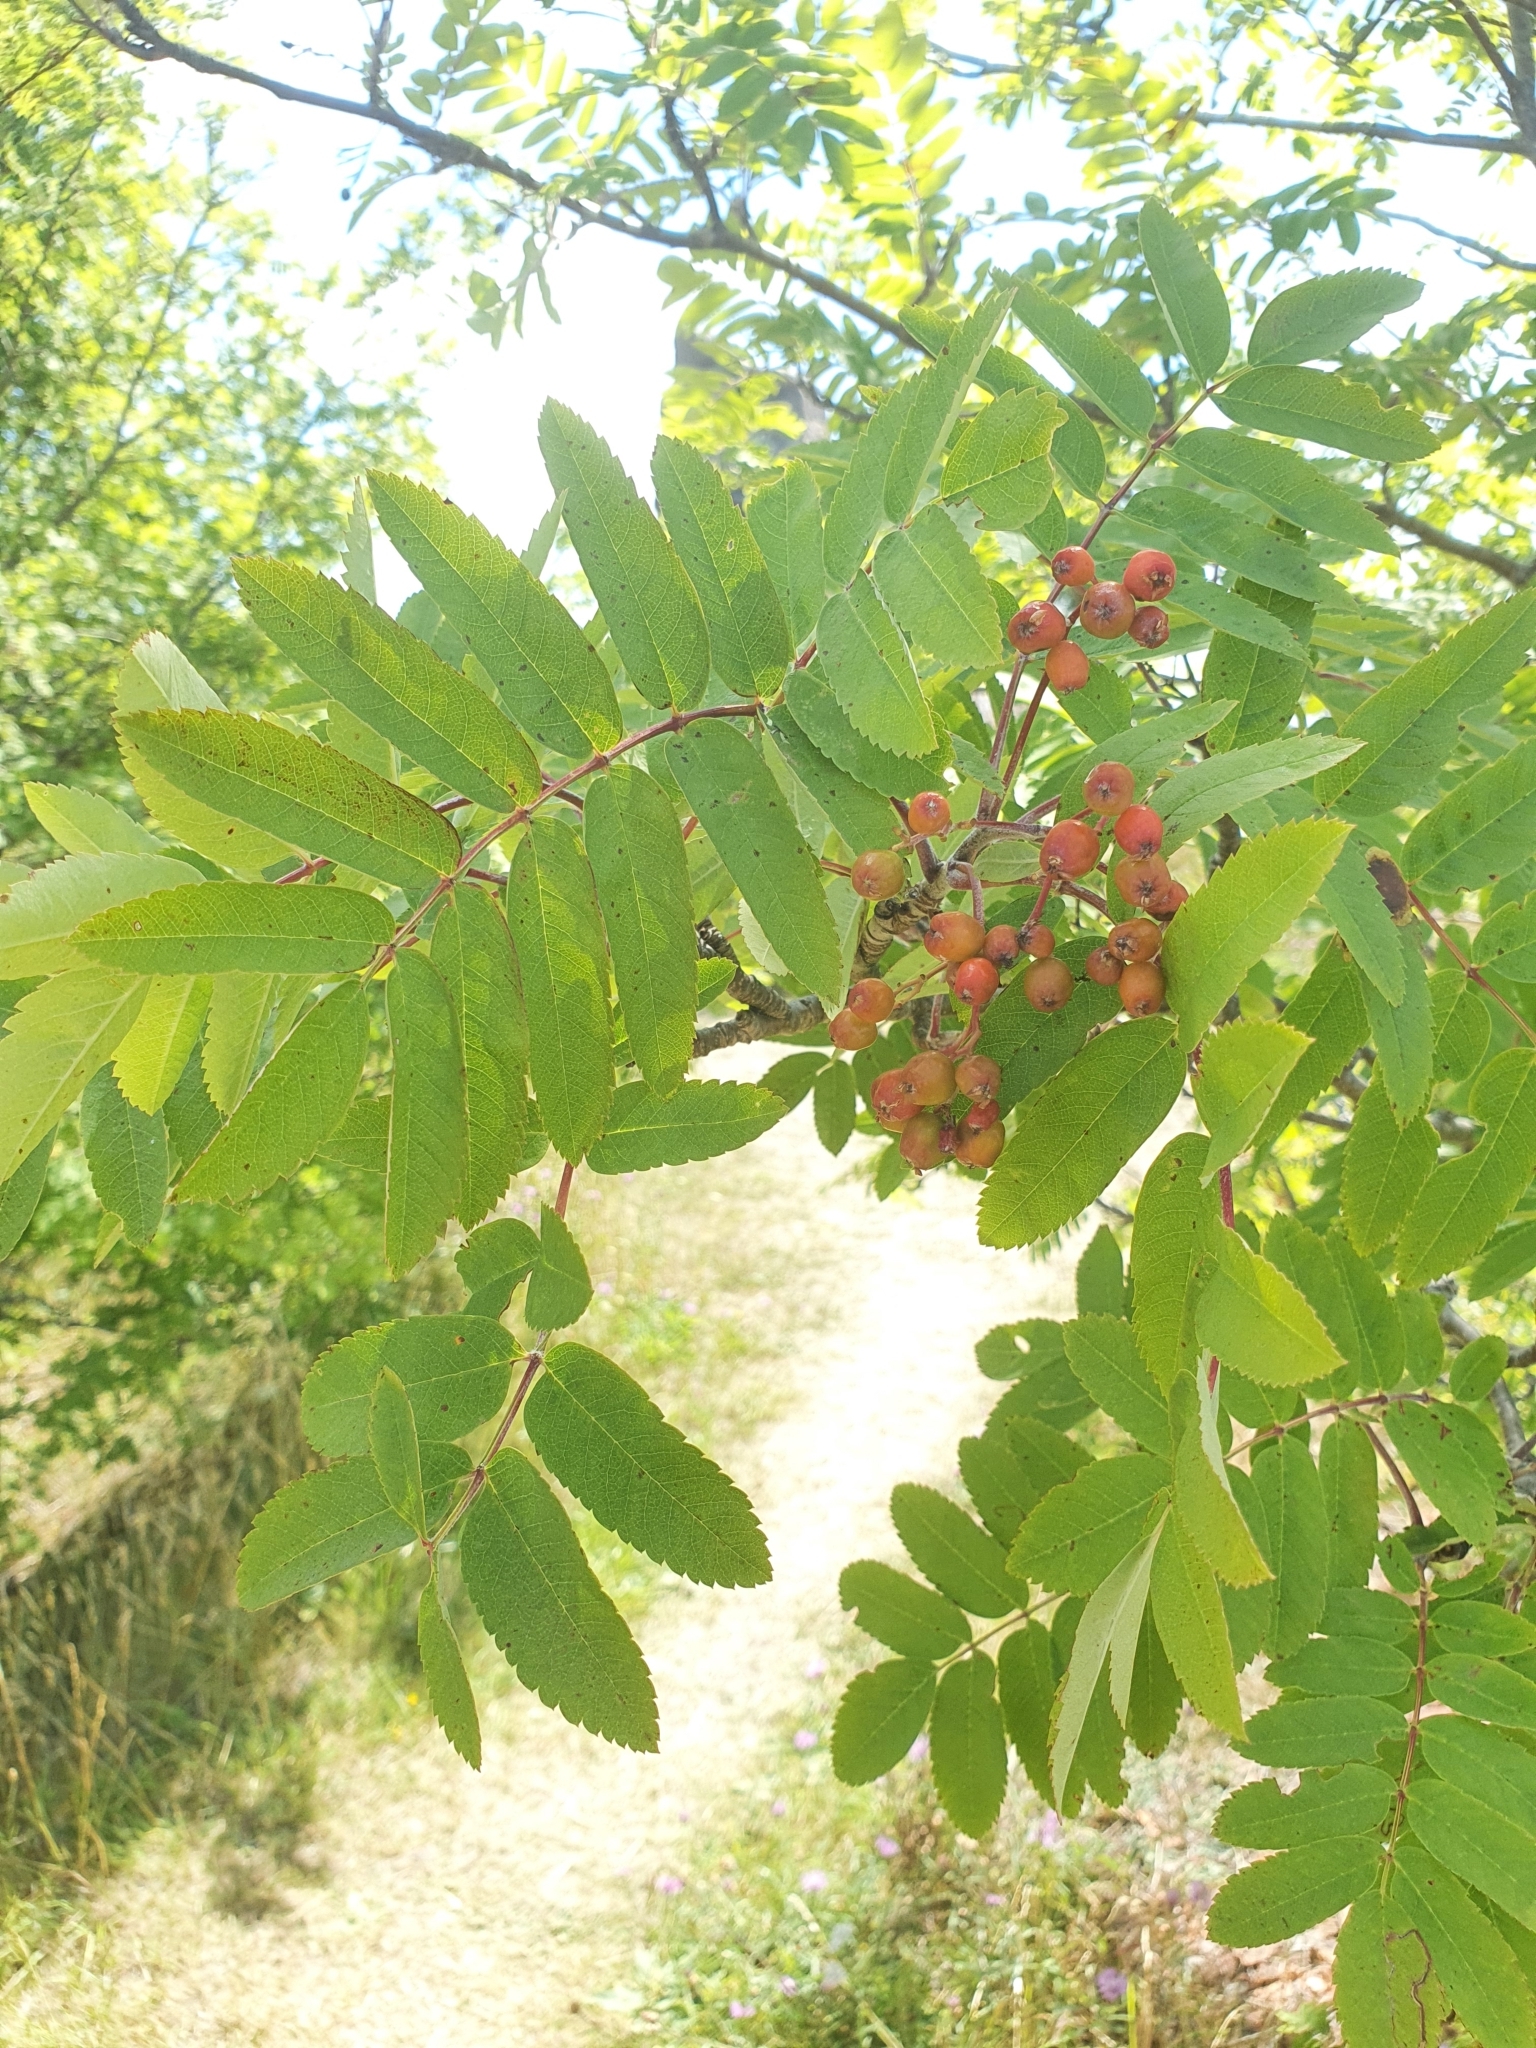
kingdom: Plantae
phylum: Tracheophyta
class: Magnoliopsida
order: Rosales
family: Rosaceae
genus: Sorbus
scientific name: Sorbus aucuparia
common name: Rowan
